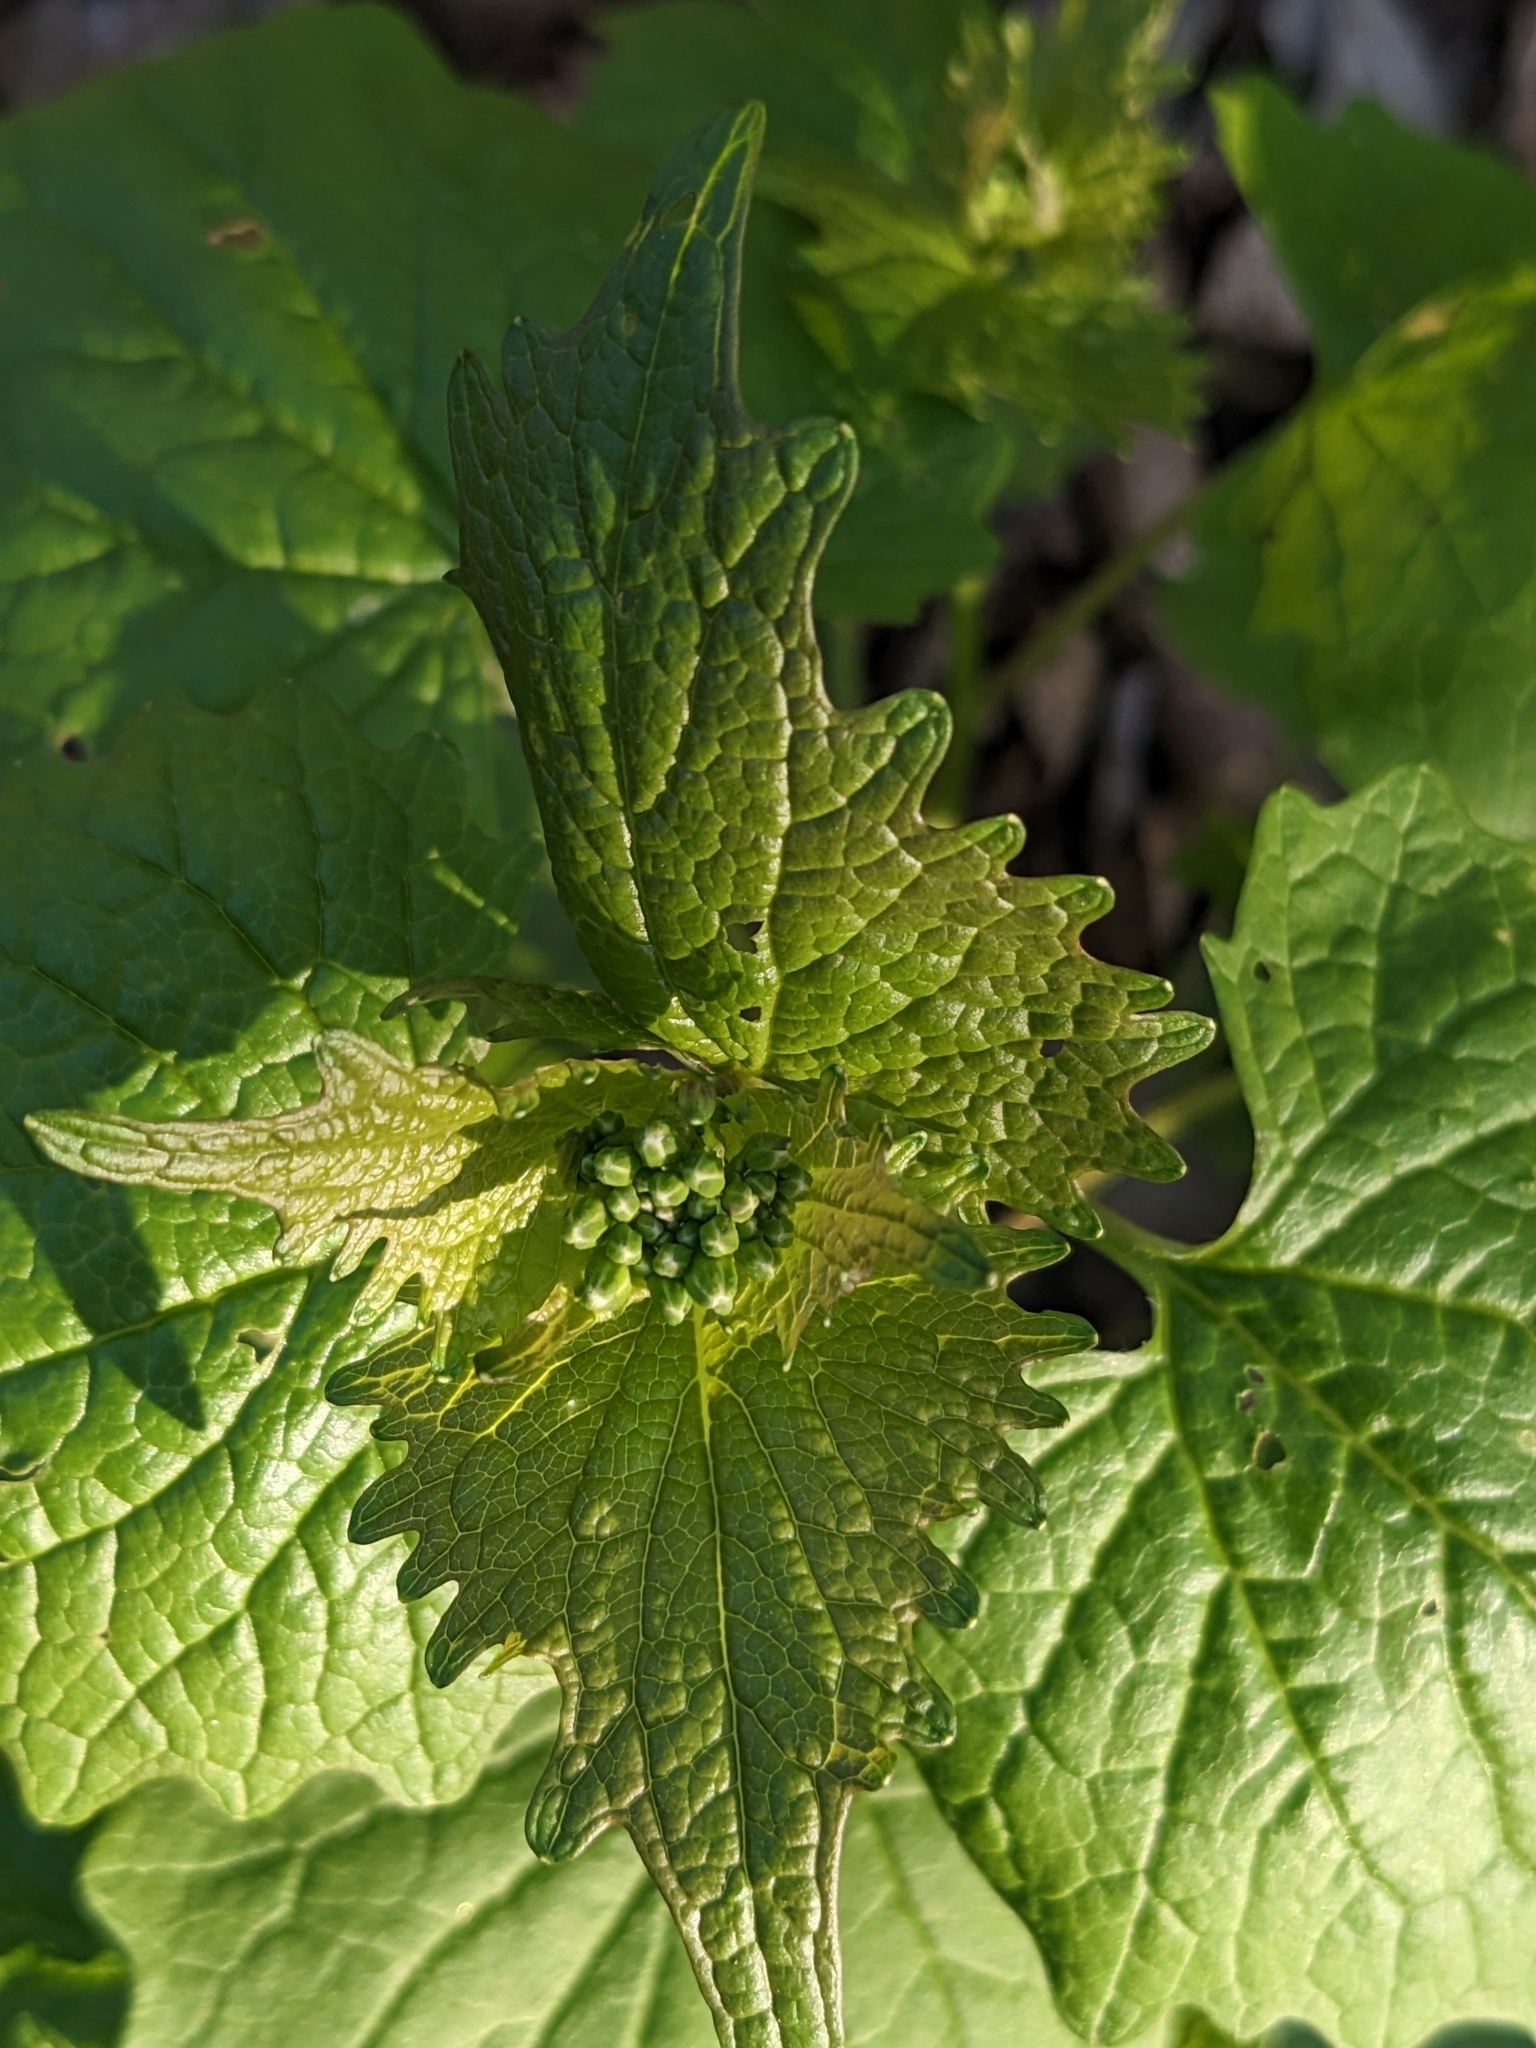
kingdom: Plantae
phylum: Tracheophyta
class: Magnoliopsida
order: Brassicales
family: Brassicaceae
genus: Alliaria
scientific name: Alliaria petiolata
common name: Garlic mustard
